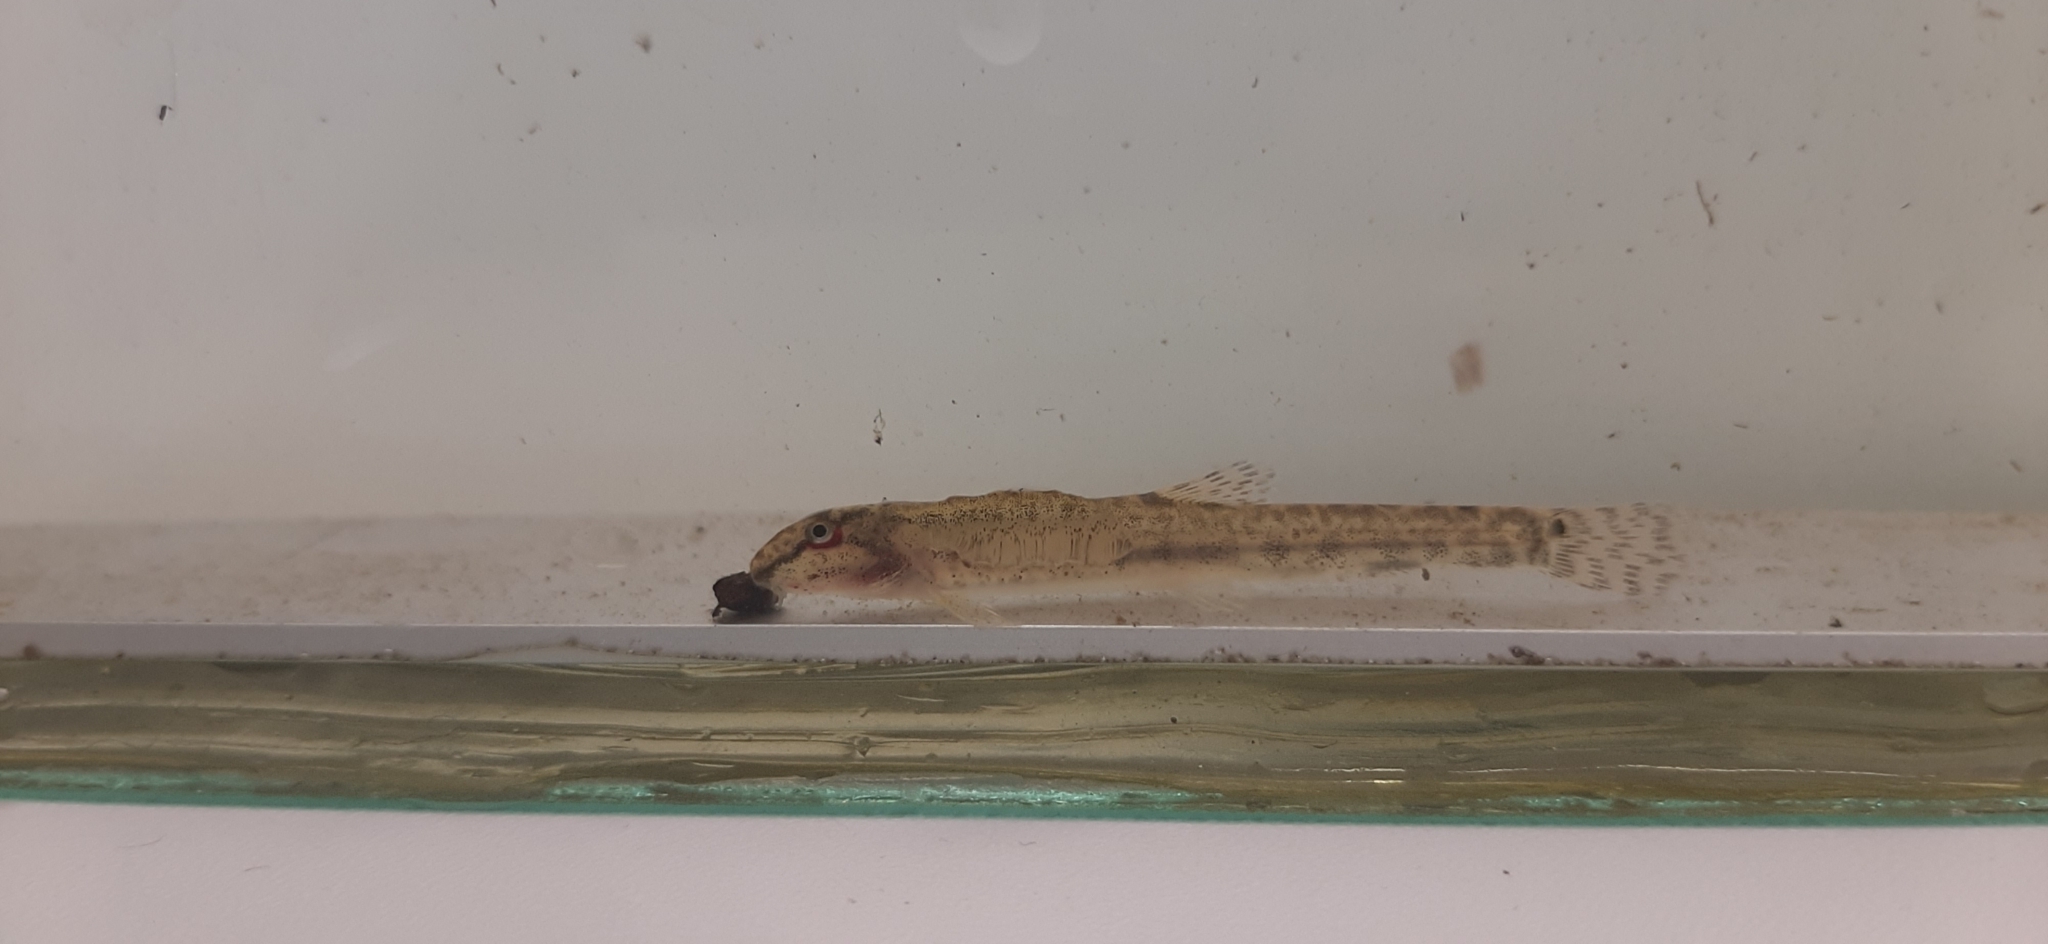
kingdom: Animalia
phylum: Chordata
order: Cypriniformes
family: Cobitidae
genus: Cobitis
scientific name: Cobitis taenia
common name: Spined loach
